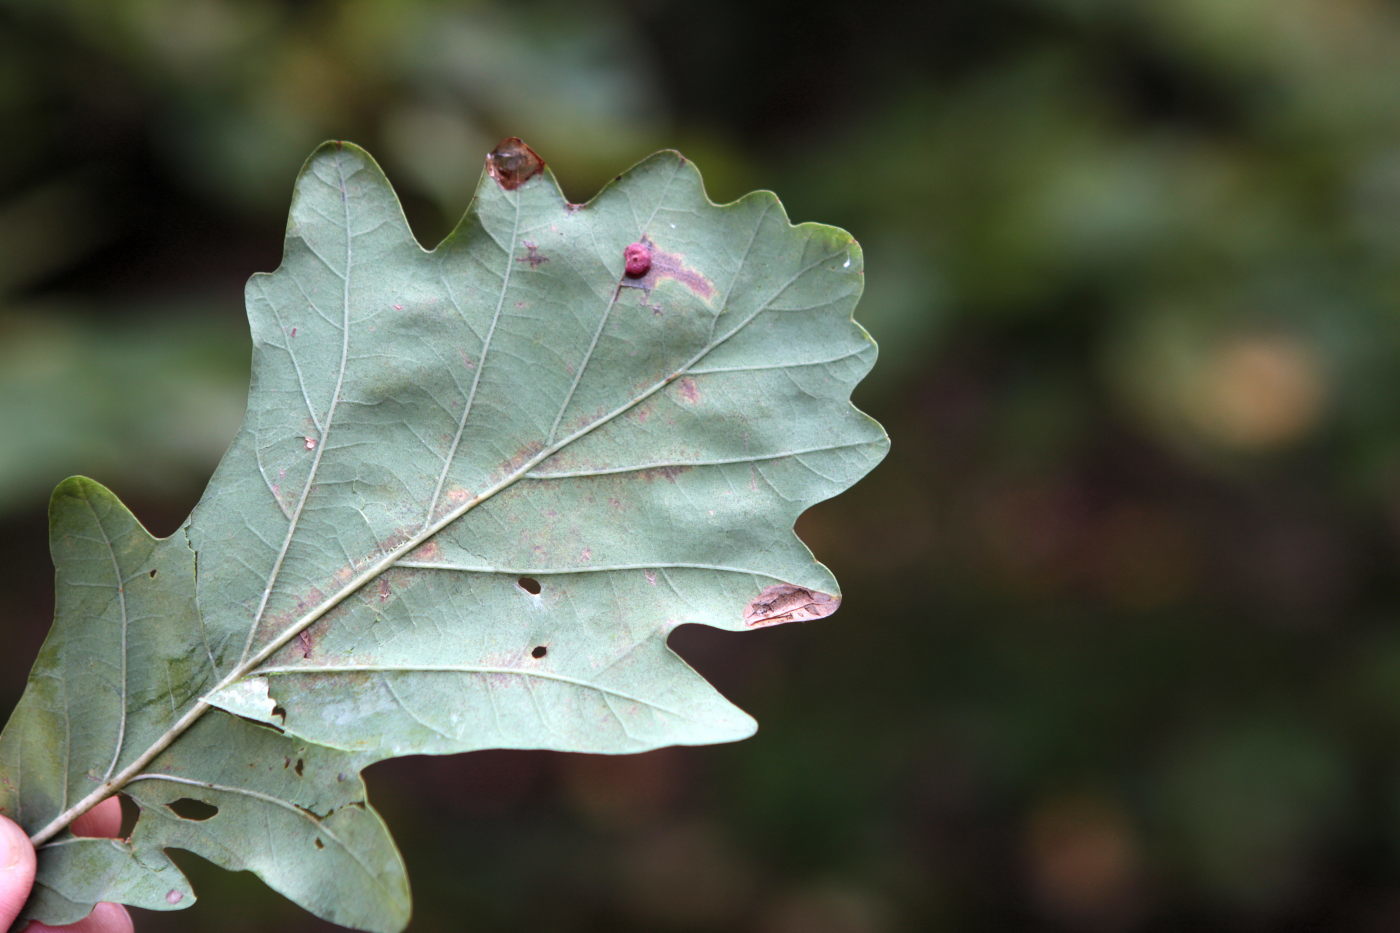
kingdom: Animalia
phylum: Arthropoda
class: Insecta
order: Hymenoptera
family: Cynipidae
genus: Neuroterus
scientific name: Neuroterus albipes
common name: Smooth spangle gall
